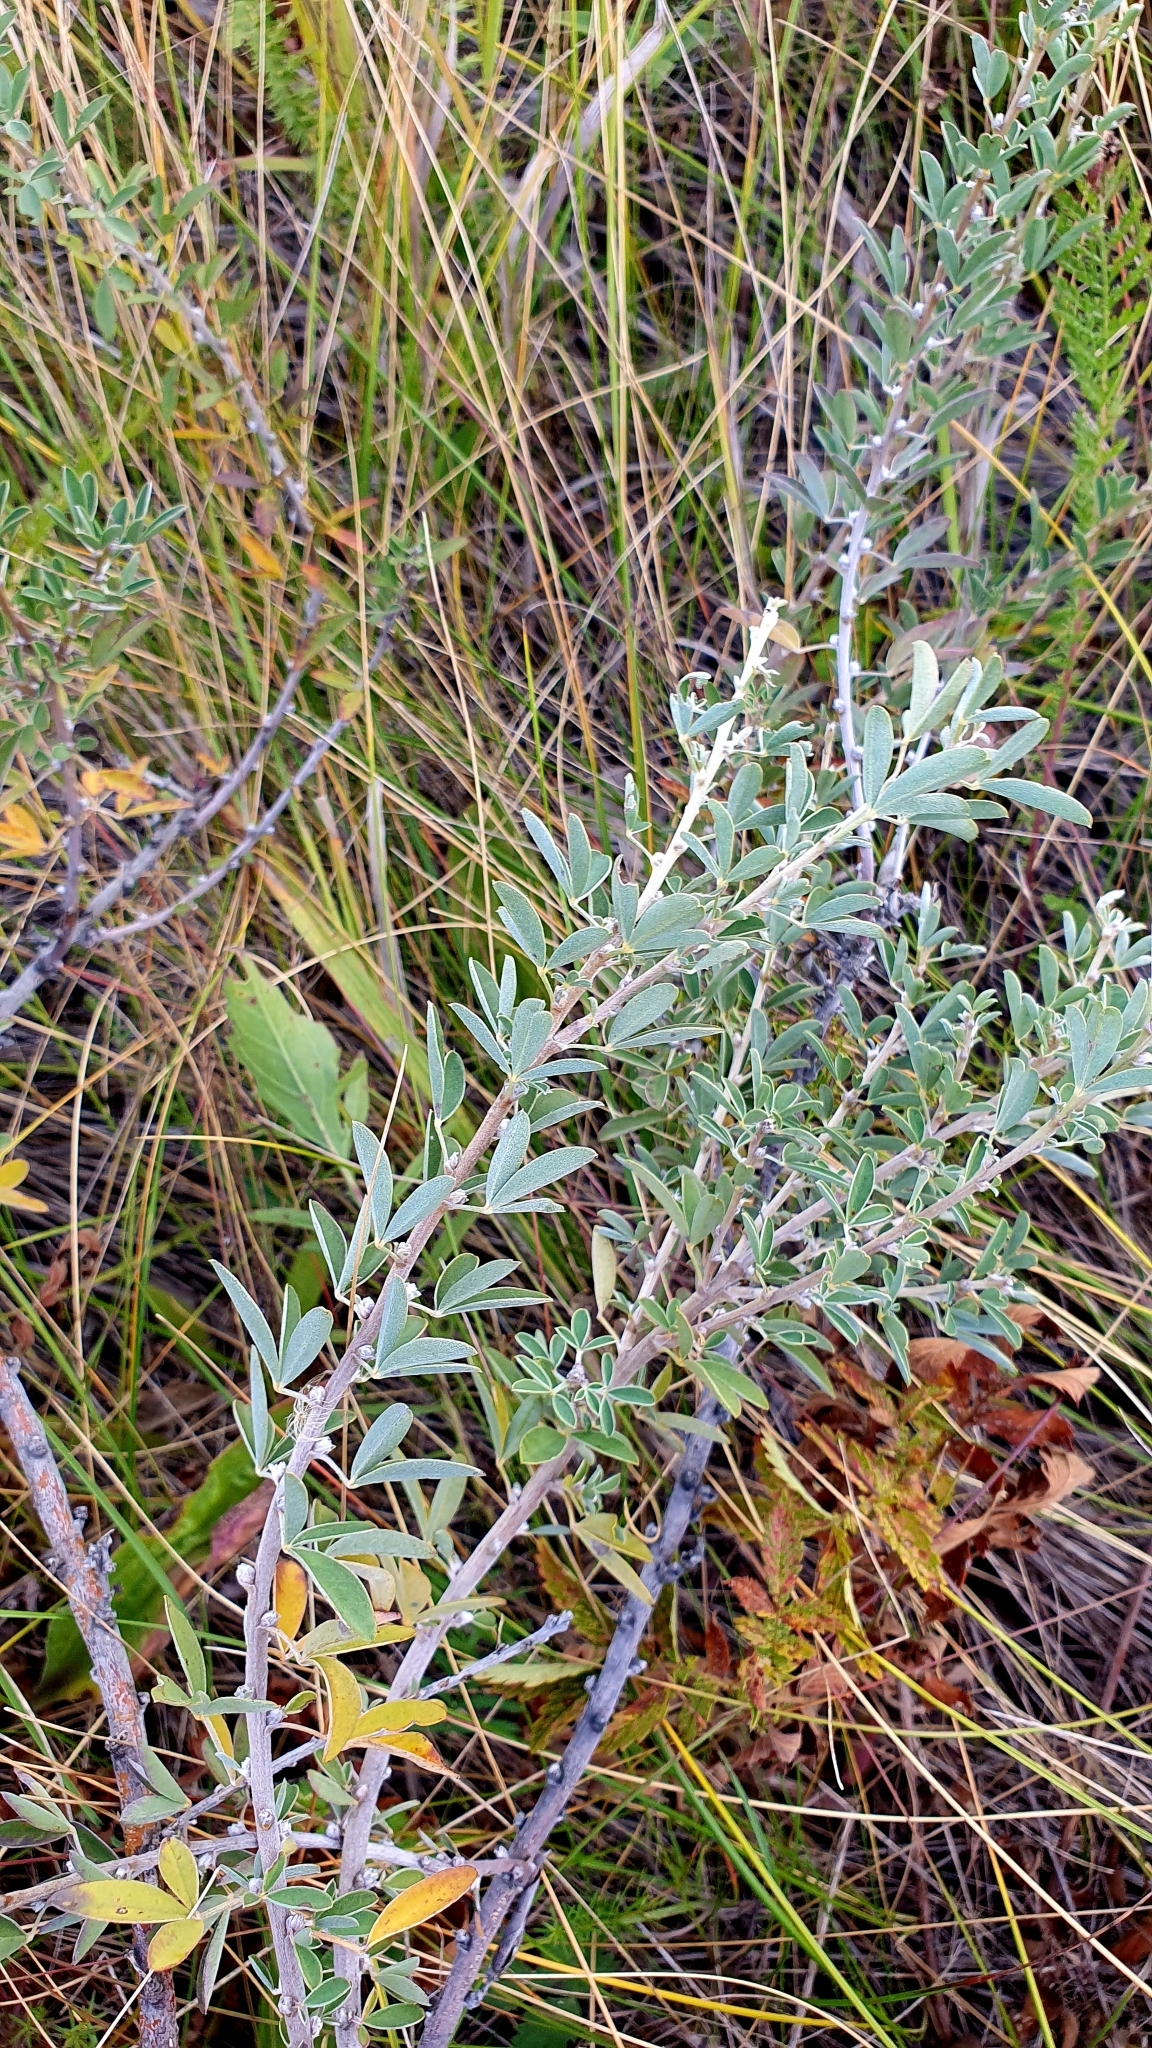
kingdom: Plantae
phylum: Tracheophyta
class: Magnoliopsida
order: Fabales
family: Fabaceae
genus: Chamaecytisus
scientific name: Chamaecytisus ruthenicus
